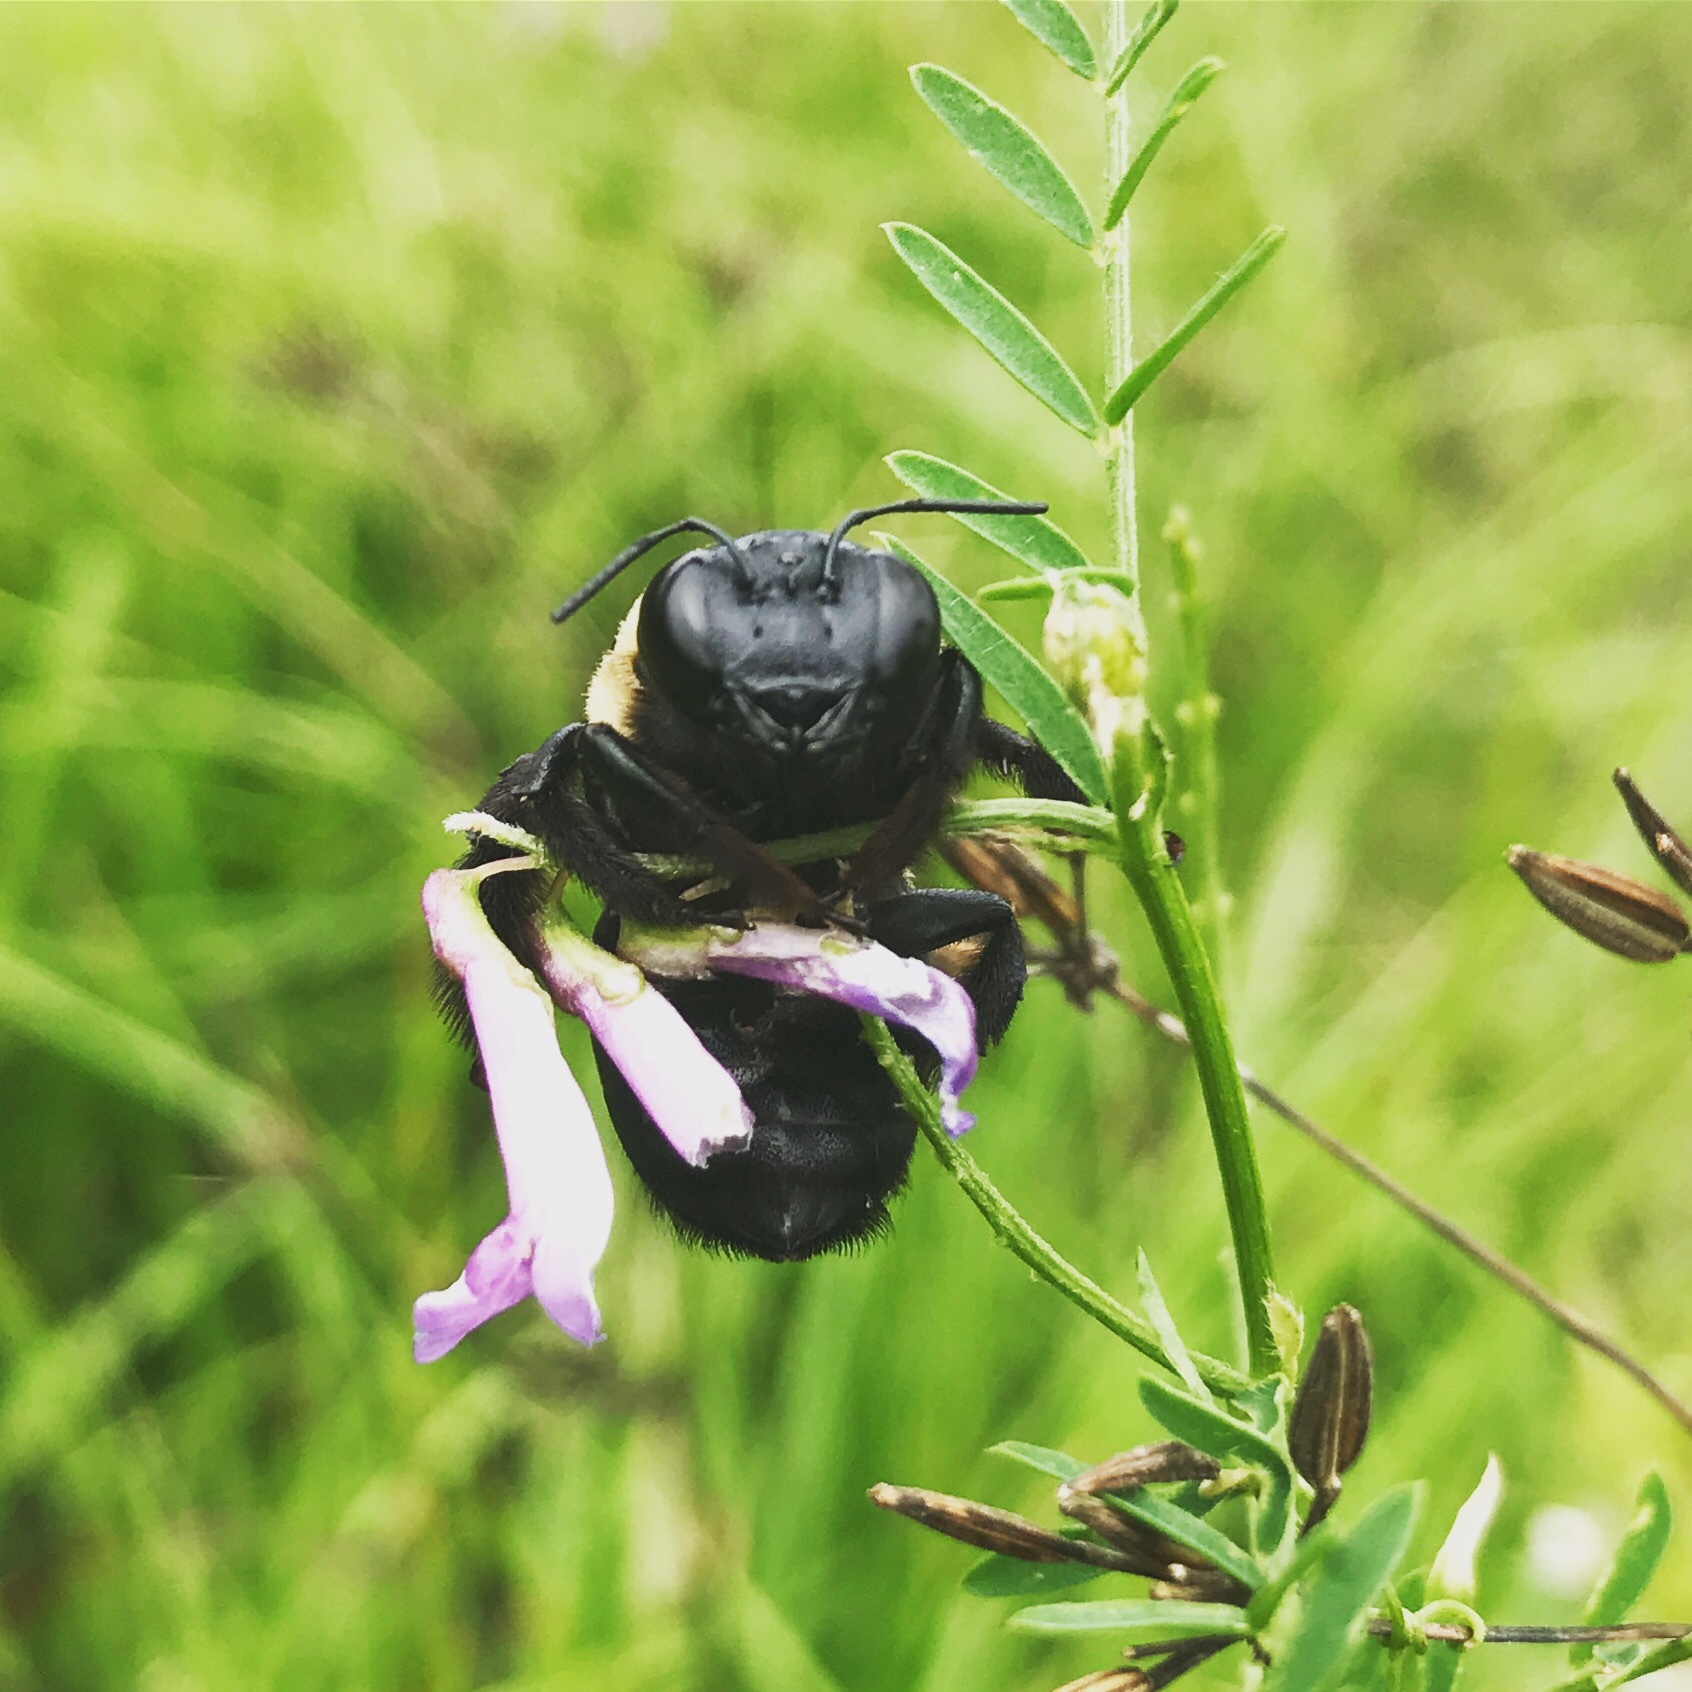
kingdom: Animalia
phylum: Arthropoda
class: Insecta
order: Hymenoptera
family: Apidae
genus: Xylocopa
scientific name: Xylocopa virginica
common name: Carpenter bee
